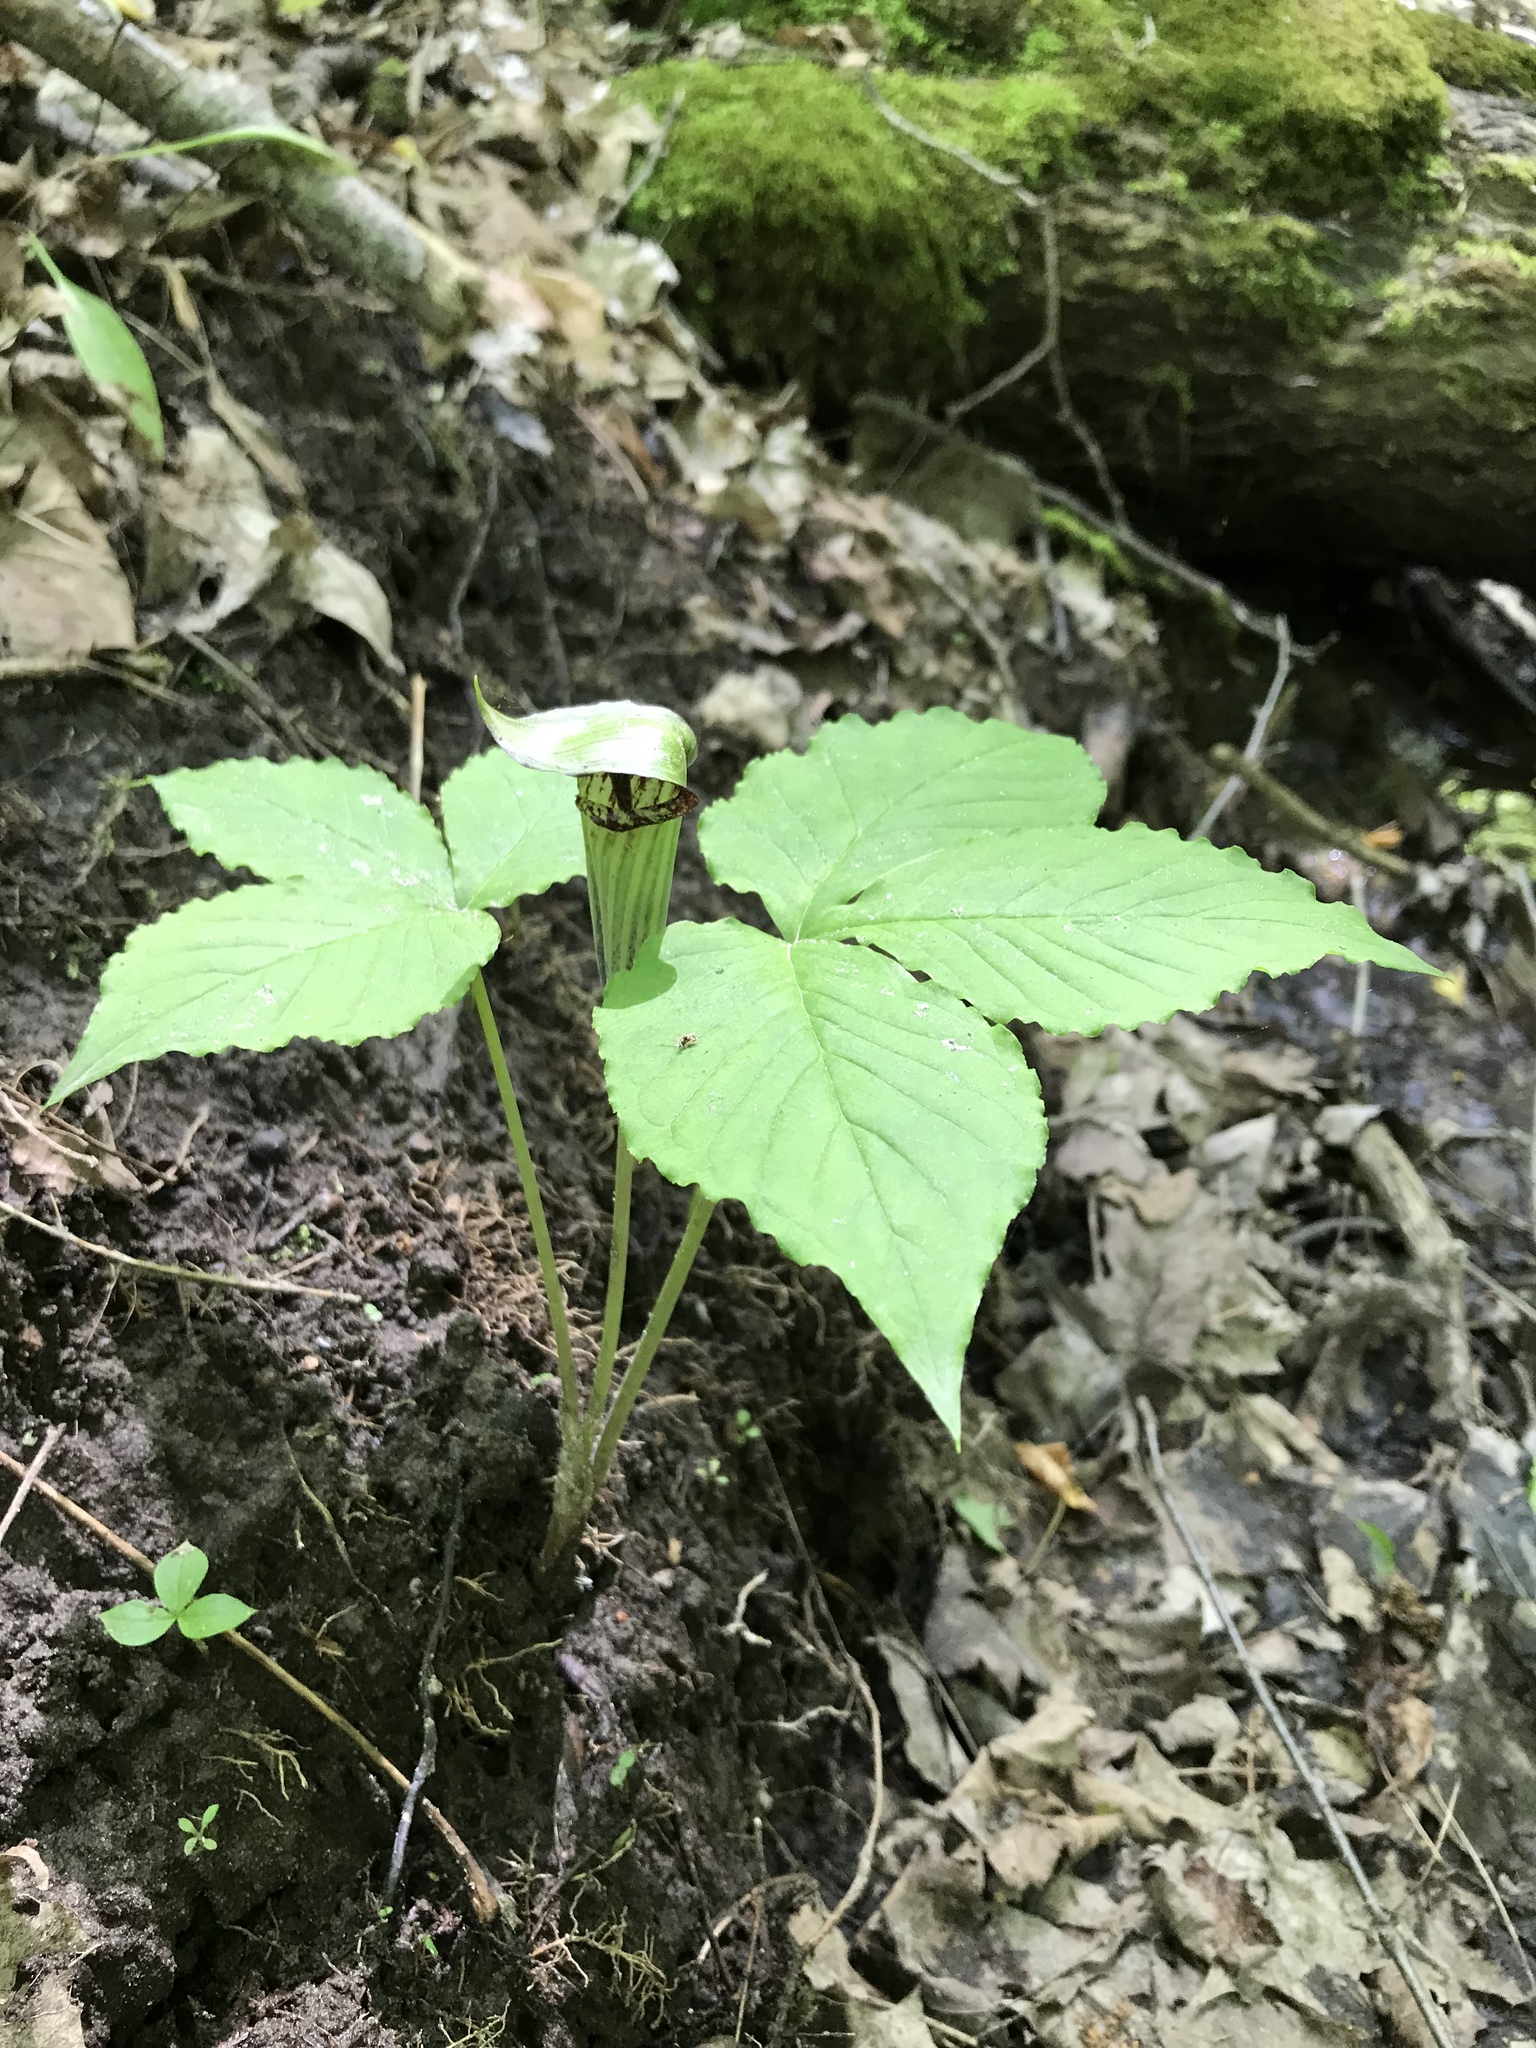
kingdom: Plantae
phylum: Tracheophyta
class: Liliopsida
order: Alismatales
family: Araceae
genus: Arisaema
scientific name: Arisaema triphyllum
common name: Jack-in-the-pulpit
